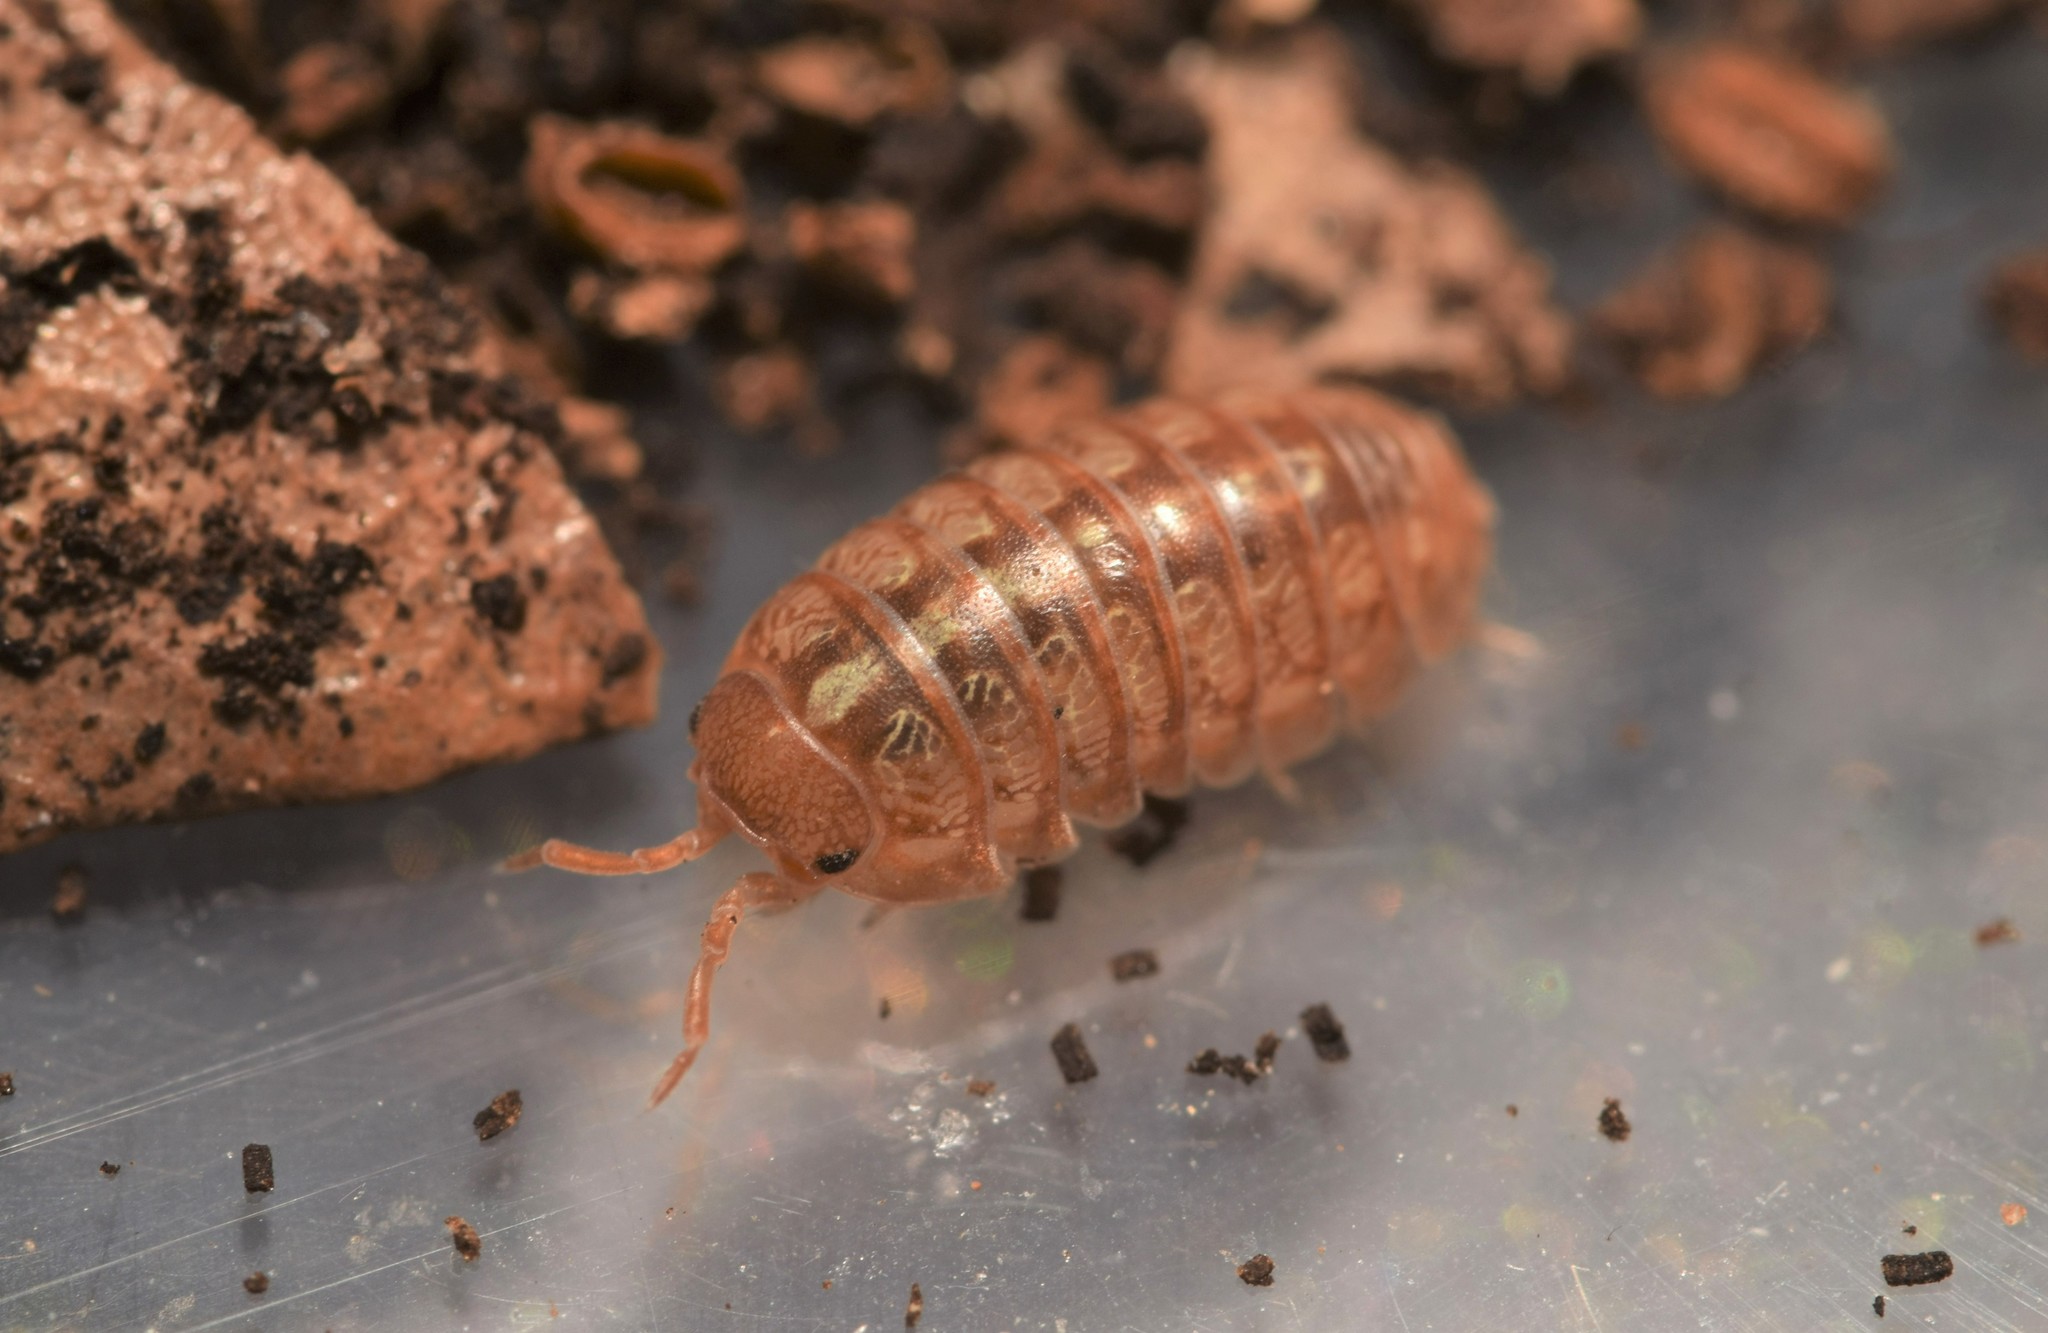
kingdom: Animalia
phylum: Arthropoda
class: Malacostraca
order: Isopoda
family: Armadillidiidae
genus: Armadillidium
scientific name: Armadillidium vulgare
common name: Common pill woodlouse
